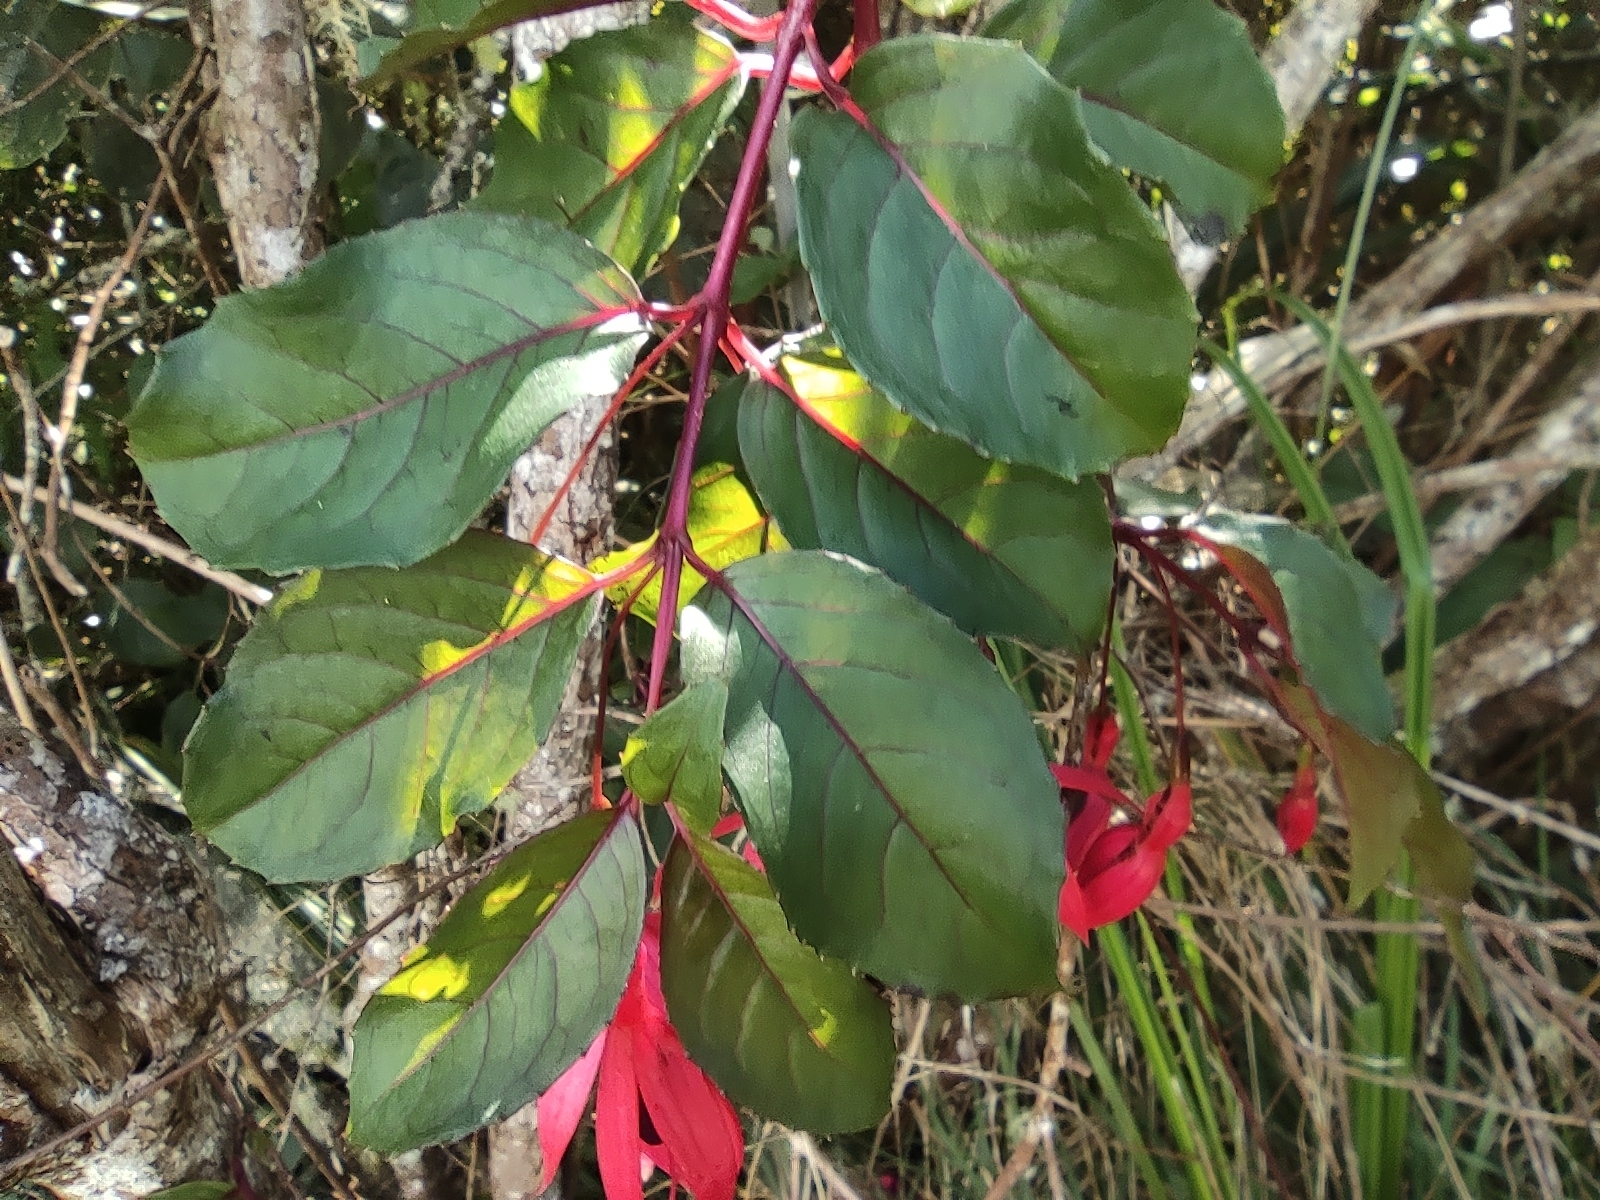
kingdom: Plantae
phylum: Tracheophyta
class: Magnoliopsida
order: Myrtales
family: Onagraceae
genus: Fuchsia
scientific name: Fuchsia magellanica
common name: Hardy fuchsia
